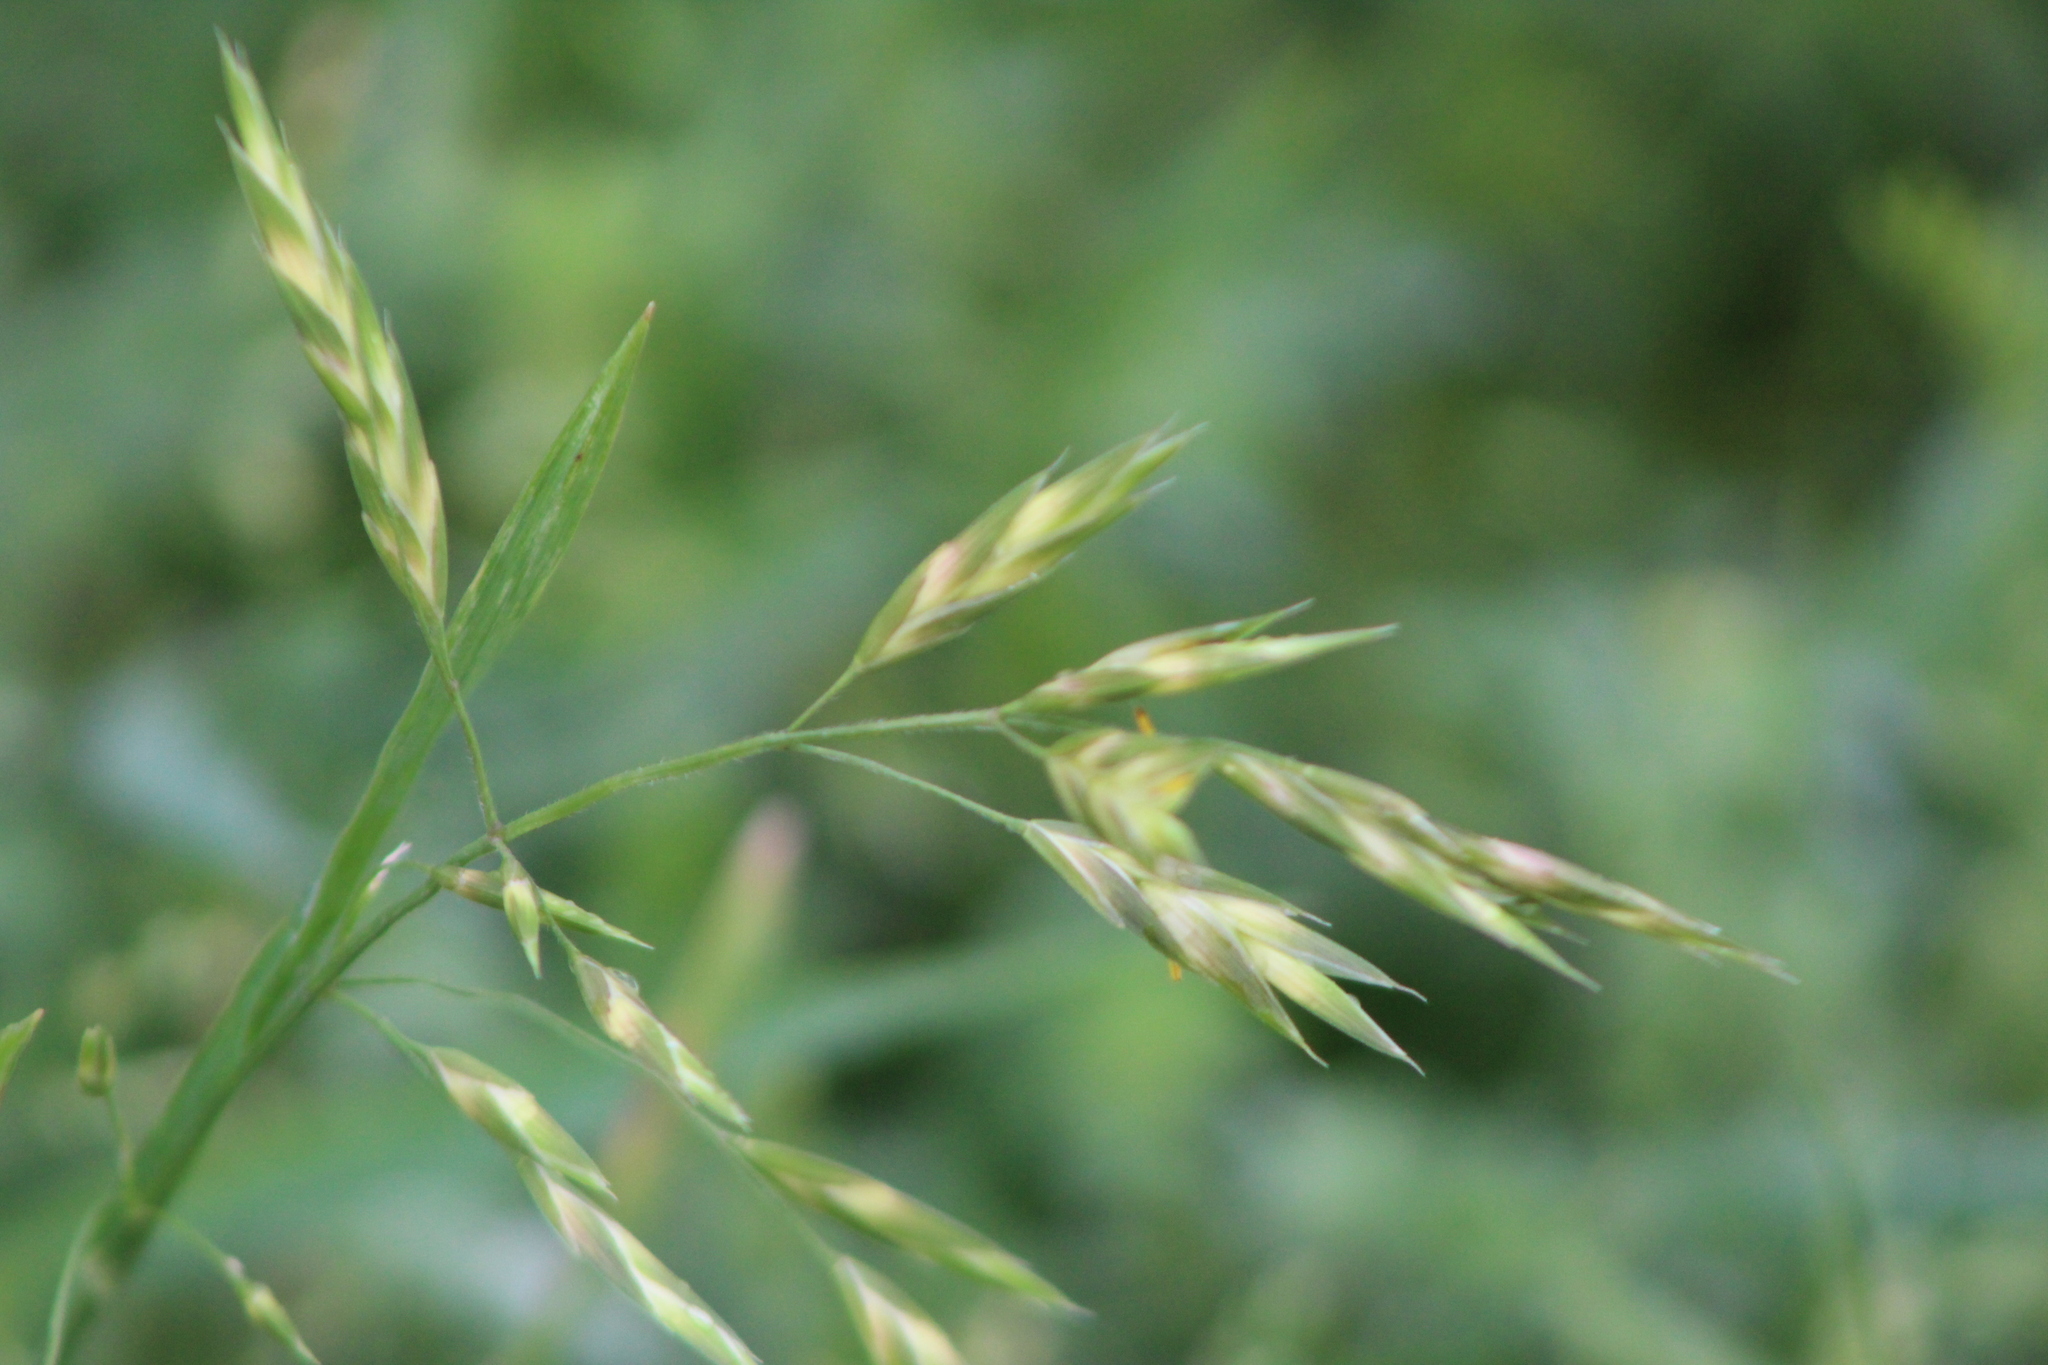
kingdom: Plantae
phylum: Tracheophyta
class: Liliopsida
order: Poales
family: Poaceae
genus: Bromus
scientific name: Bromus catharticus
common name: Rescuegrass
